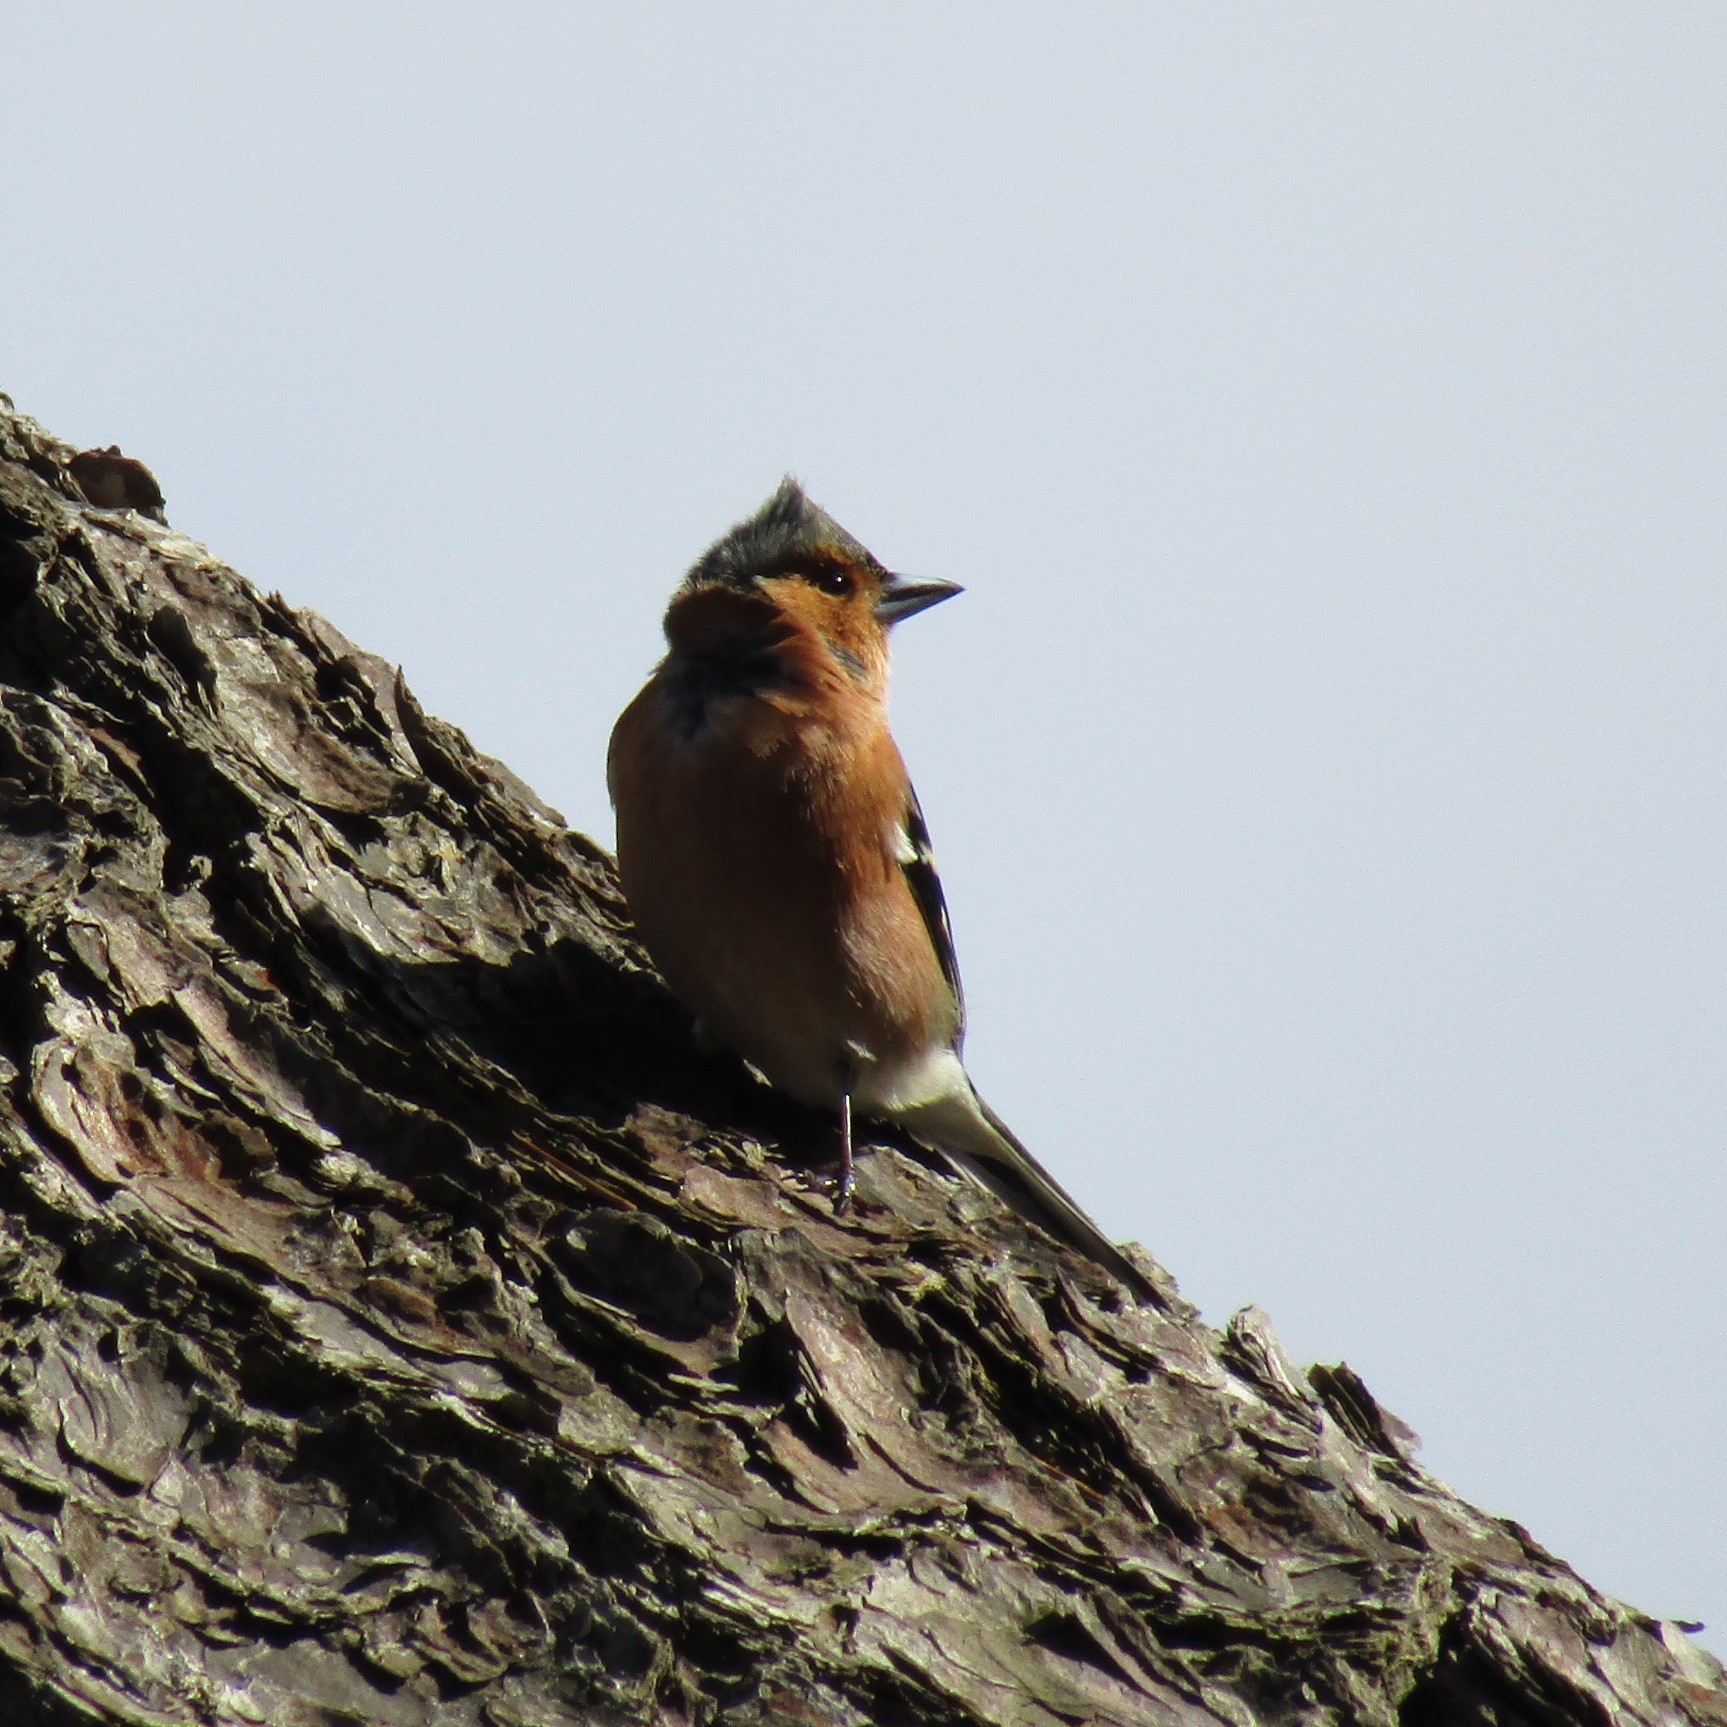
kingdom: Animalia
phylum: Chordata
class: Aves
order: Passeriformes
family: Fringillidae
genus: Fringilla
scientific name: Fringilla coelebs
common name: Common chaffinch
